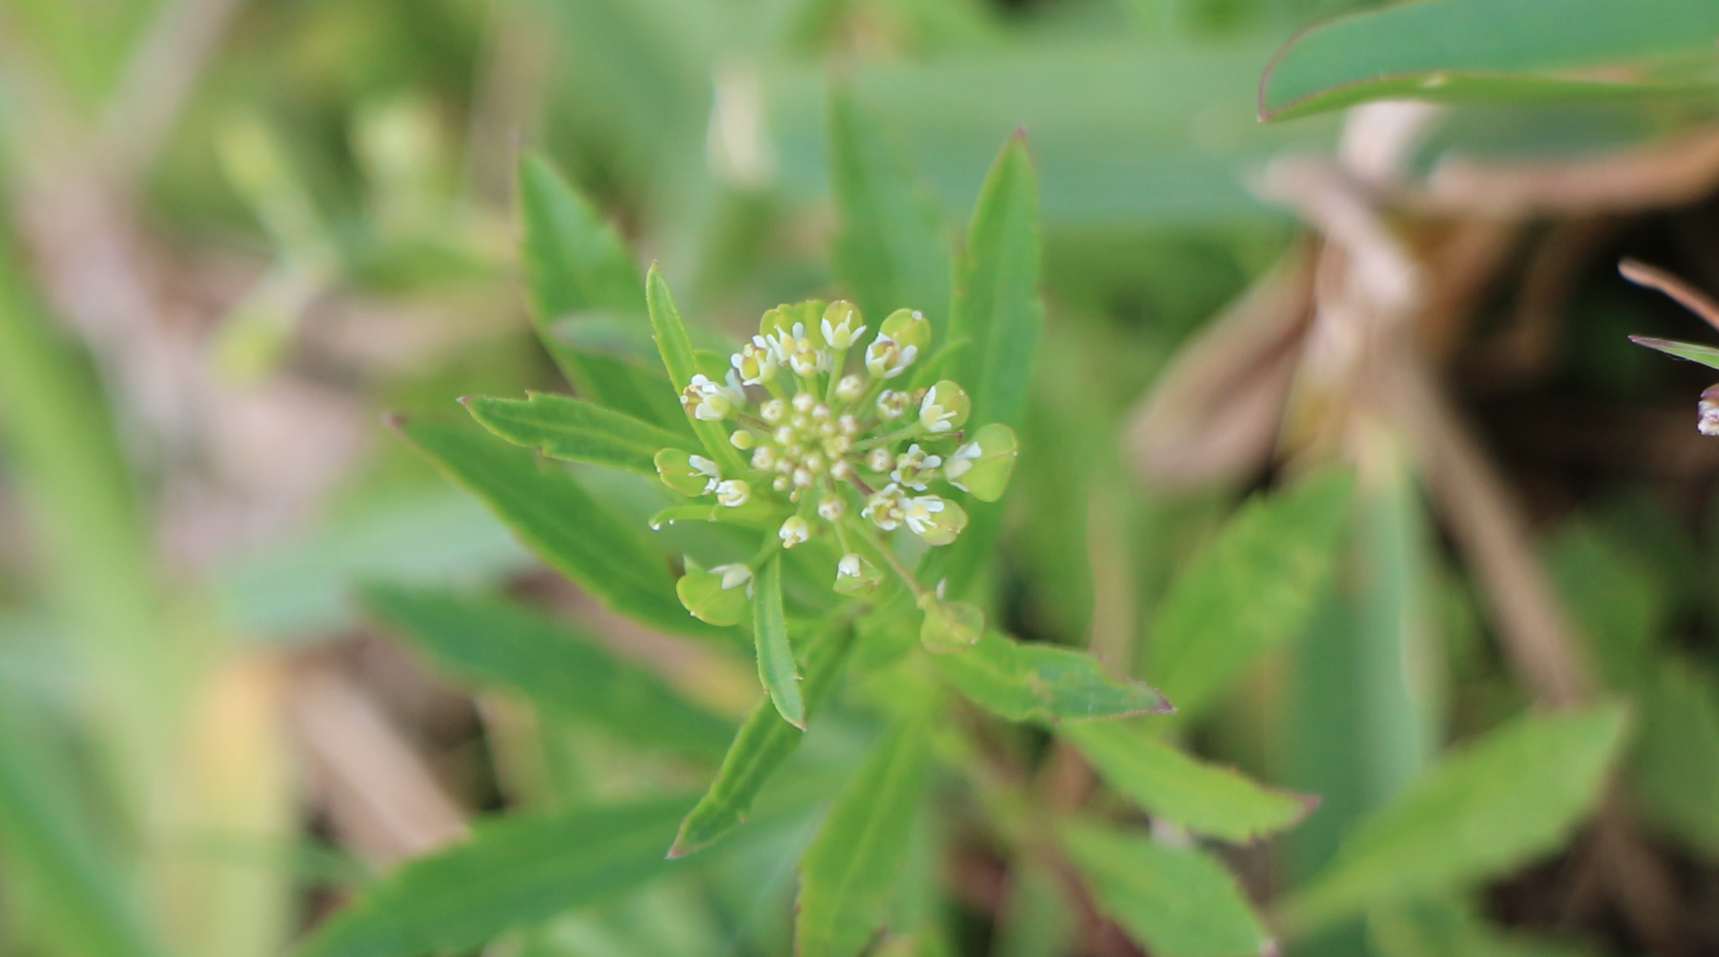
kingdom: Plantae
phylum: Tracheophyta
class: Magnoliopsida
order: Brassicales
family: Brassicaceae
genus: Lepidium
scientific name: Lepidium virginicum
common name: Least pepperwort
